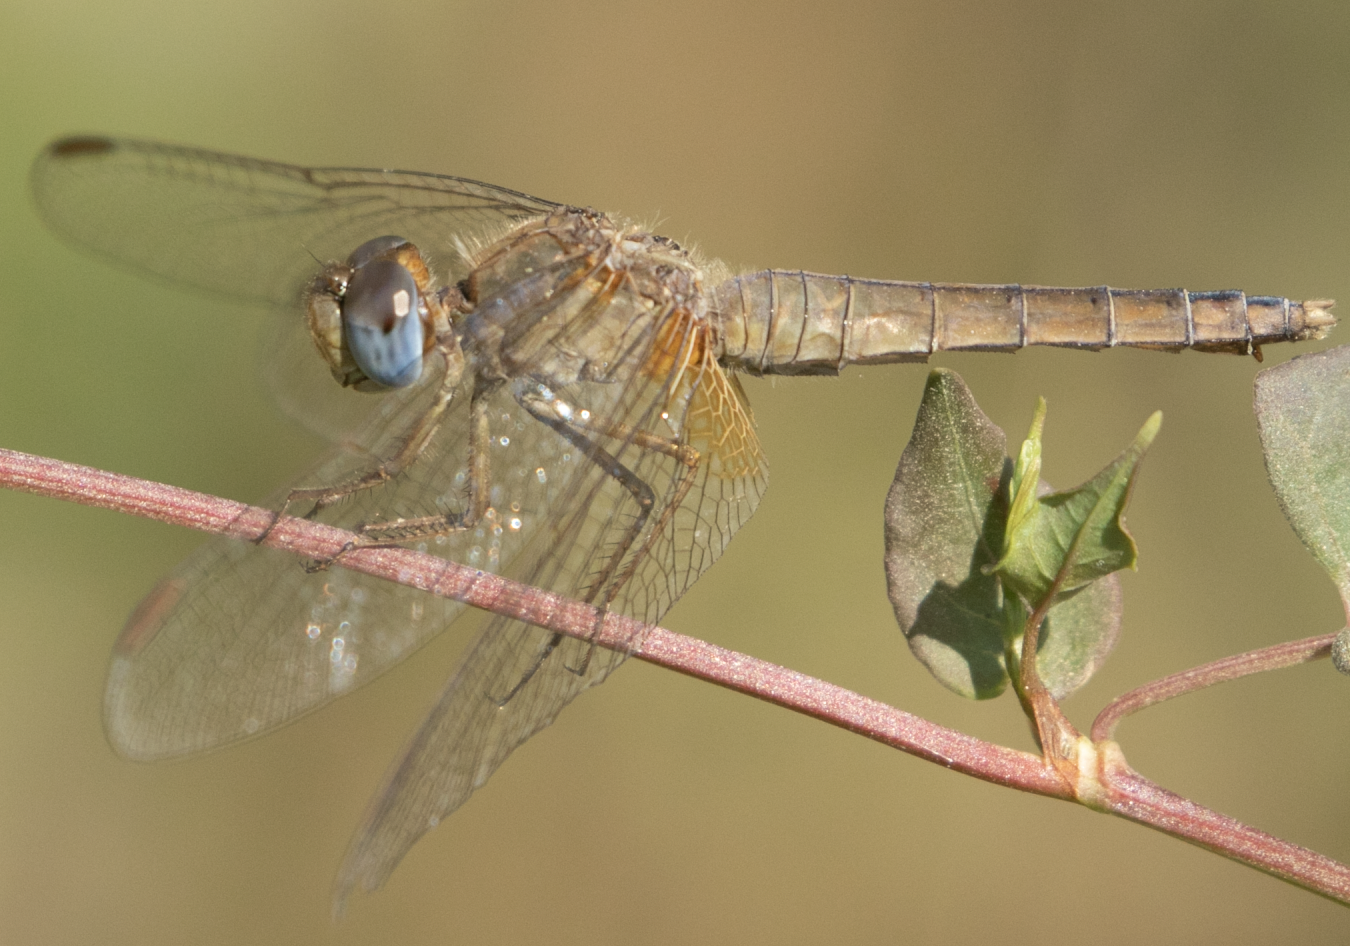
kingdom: Animalia
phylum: Arthropoda
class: Insecta
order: Odonata
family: Libellulidae
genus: Crocothemis
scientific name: Crocothemis erythraea
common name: Scarlet dragonfly
